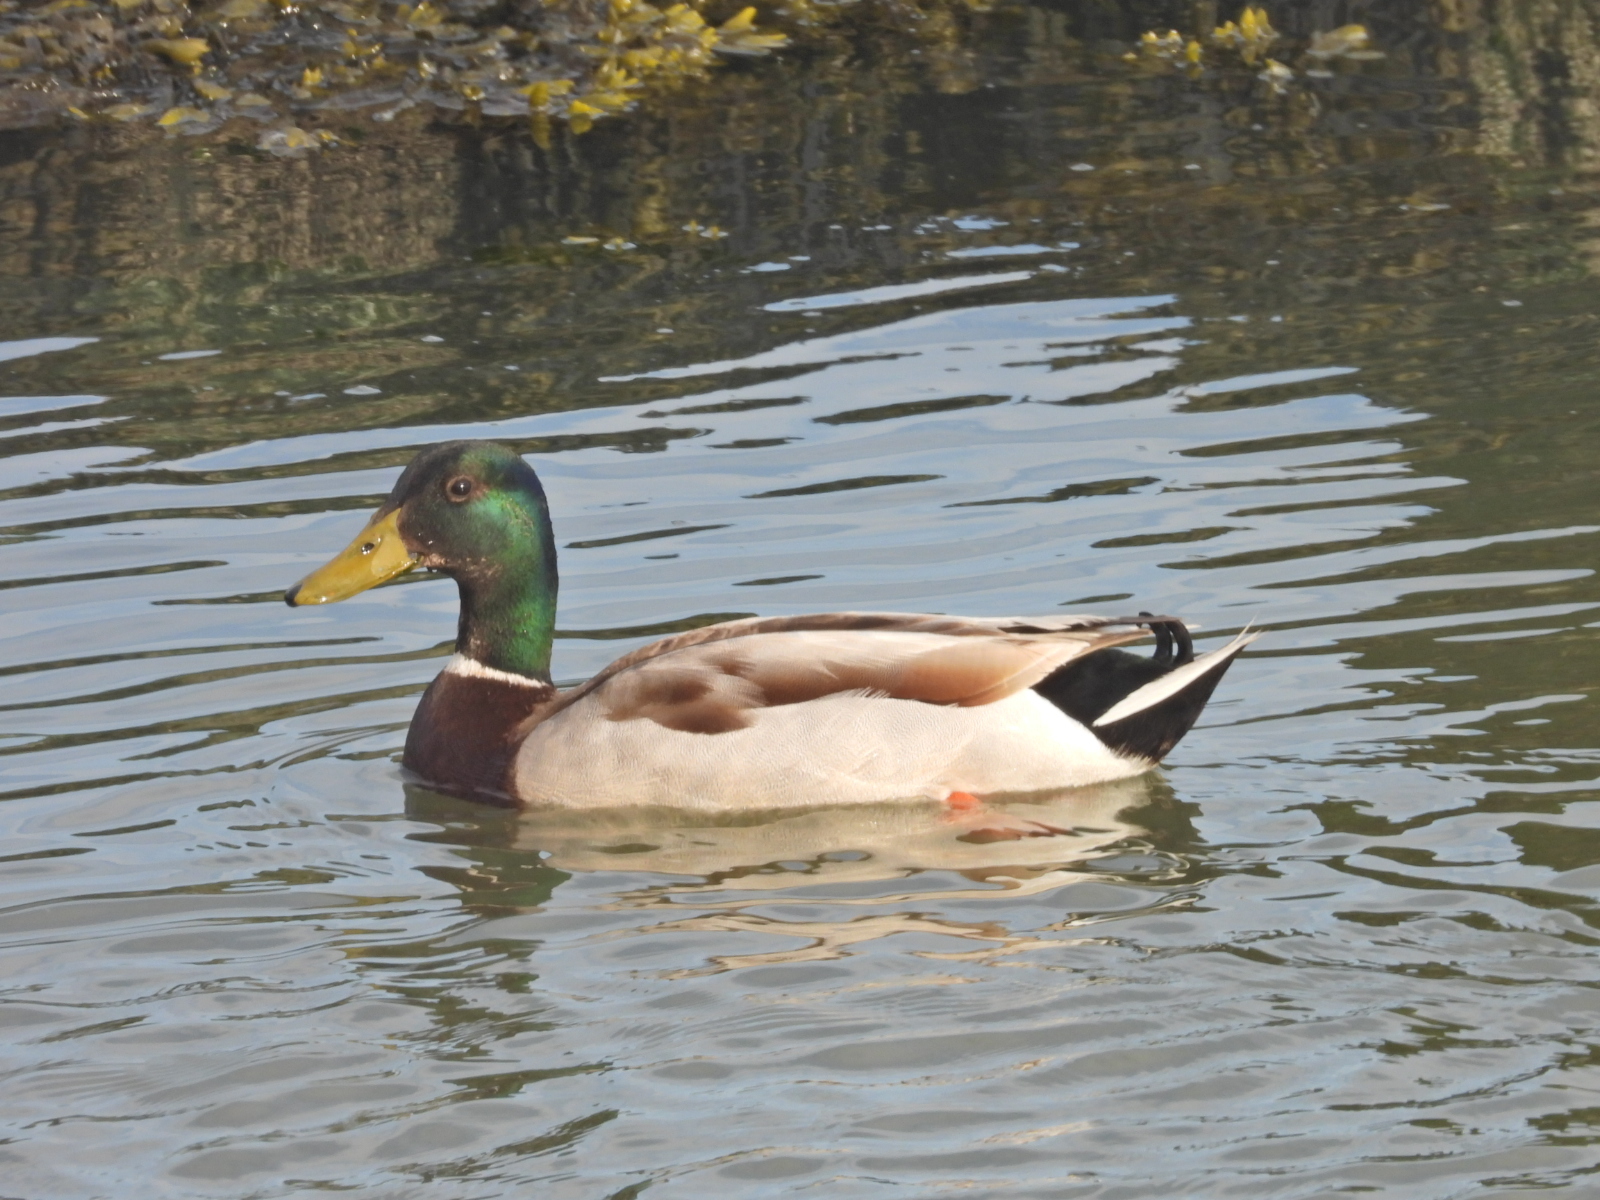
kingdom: Animalia
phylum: Chordata
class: Aves
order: Anseriformes
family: Anatidae
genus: Anas
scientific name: Anas platyrhynchos
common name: Mallard
